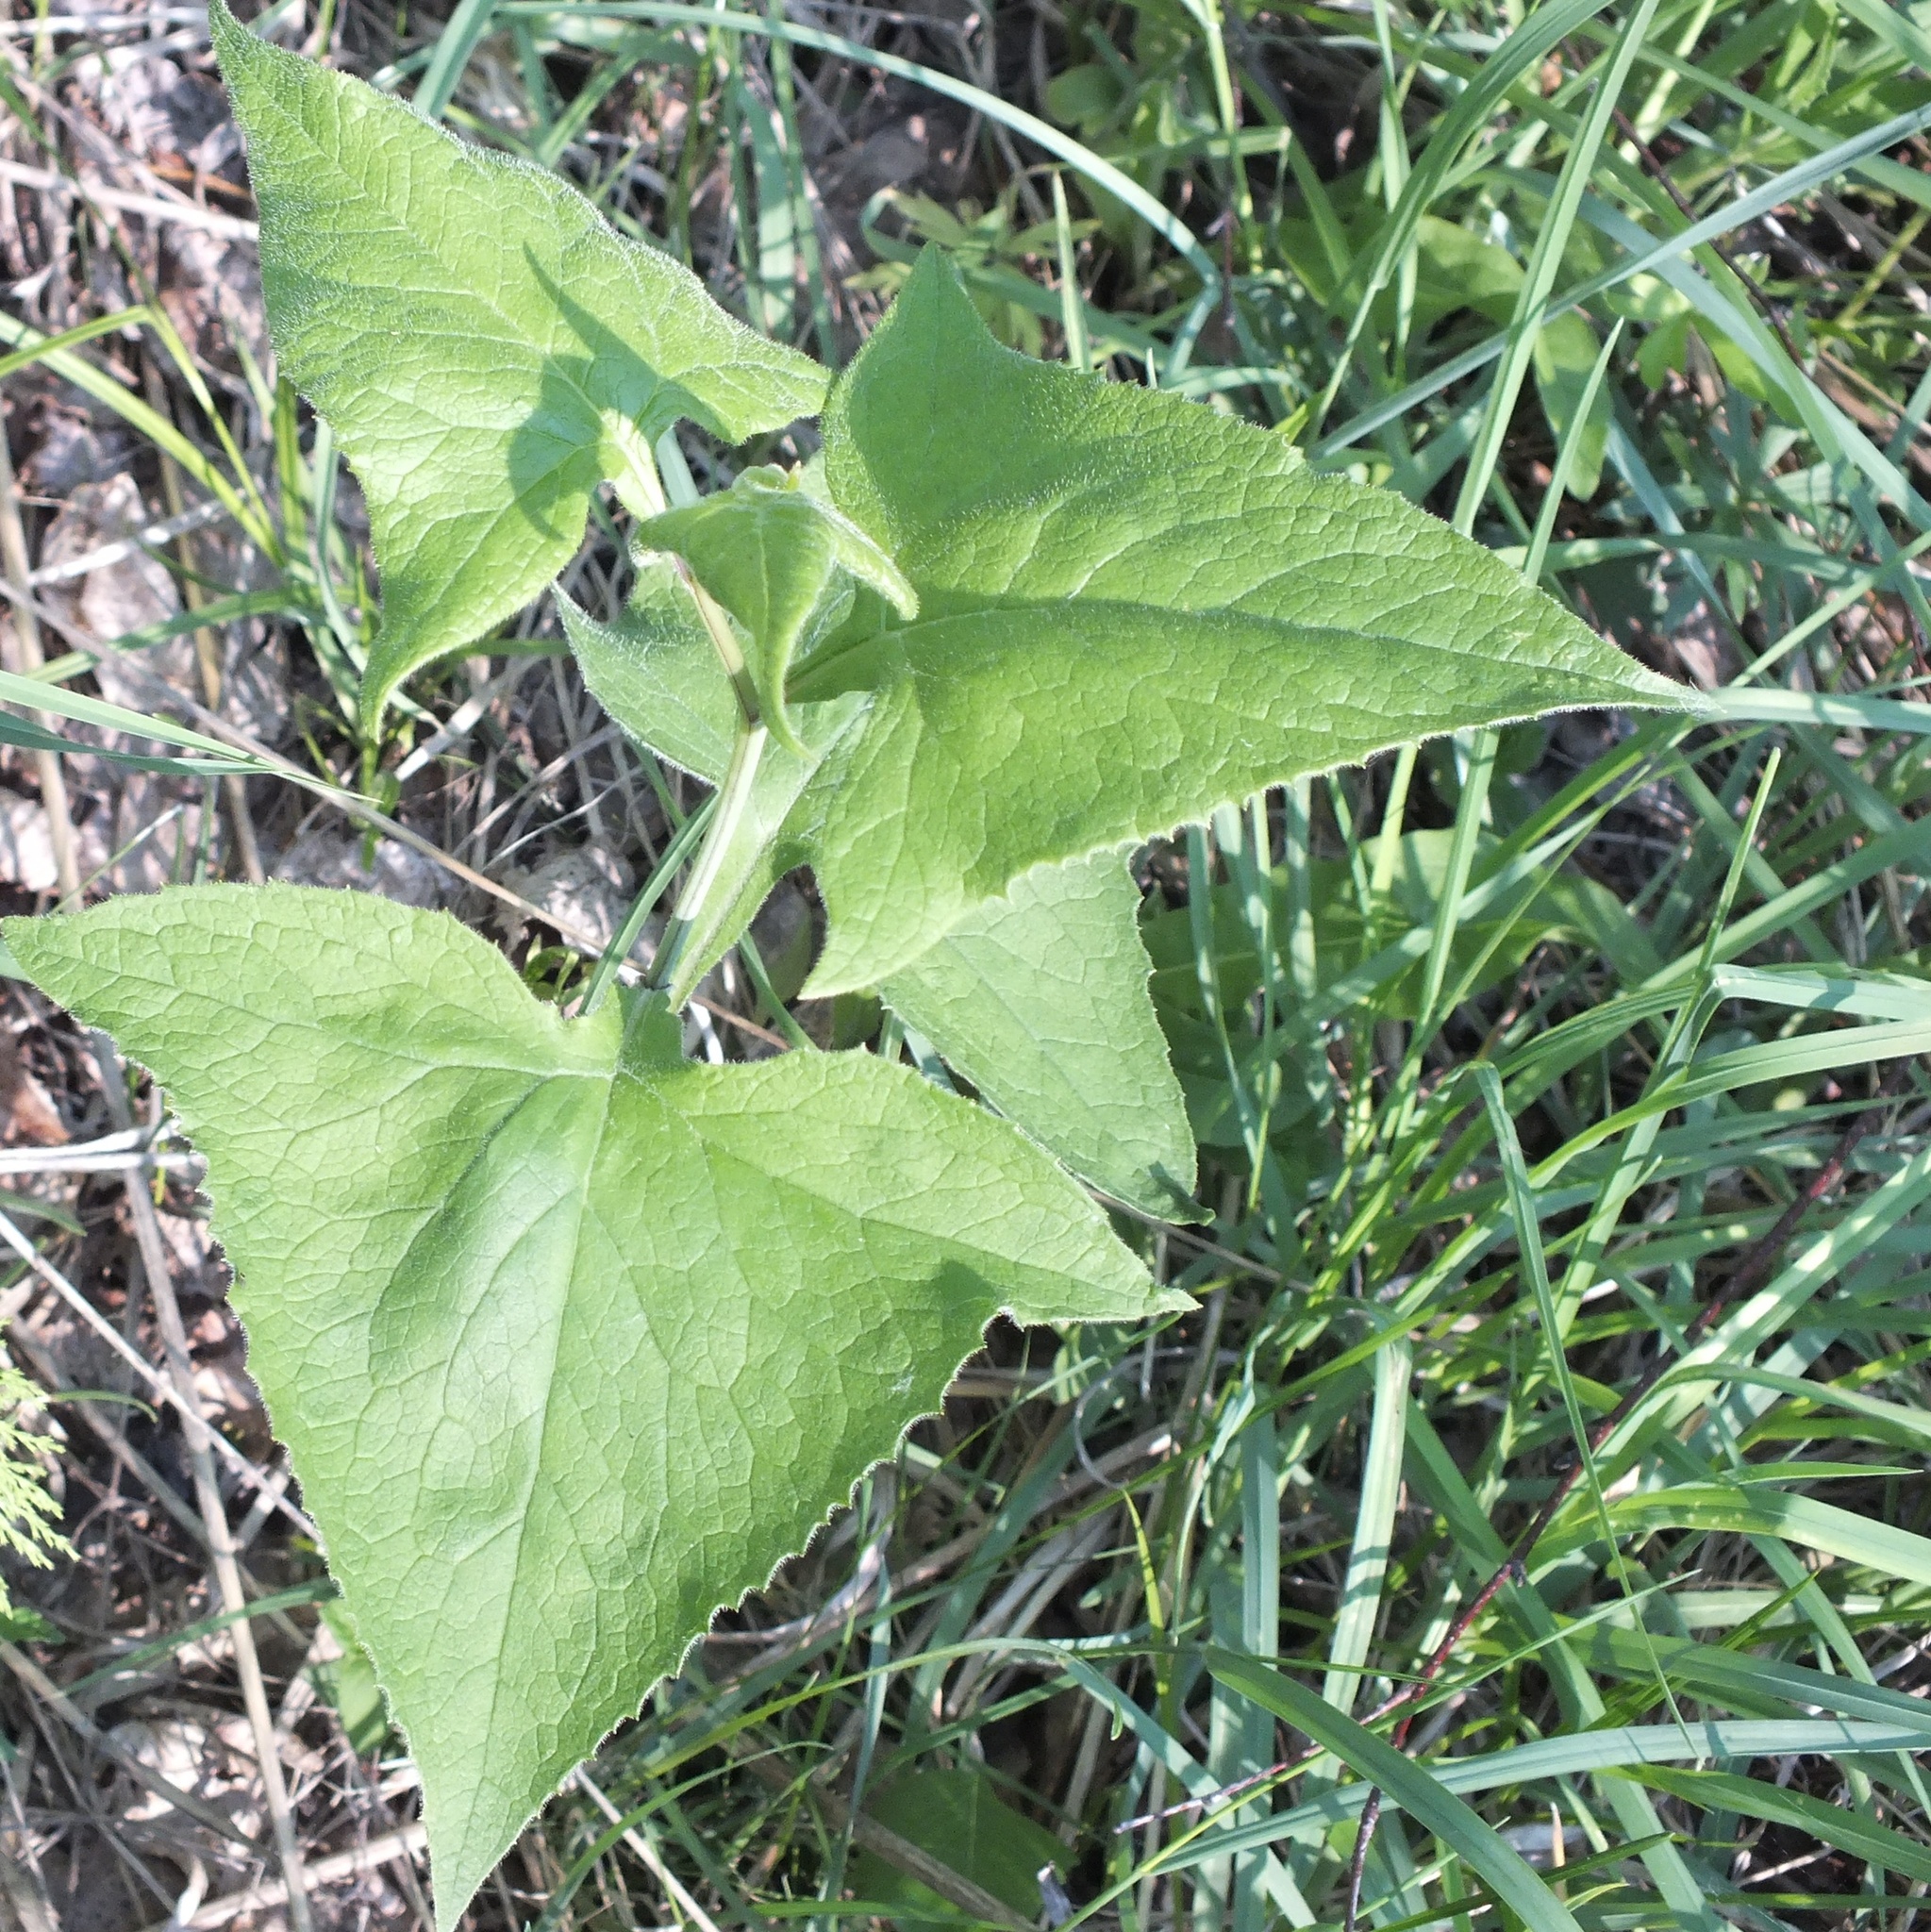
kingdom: Plantae
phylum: Tracheophyta
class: Magnoliopsida
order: Asterales
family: Asteraceae
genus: Parasenecio
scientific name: Parasenecio hastatus
